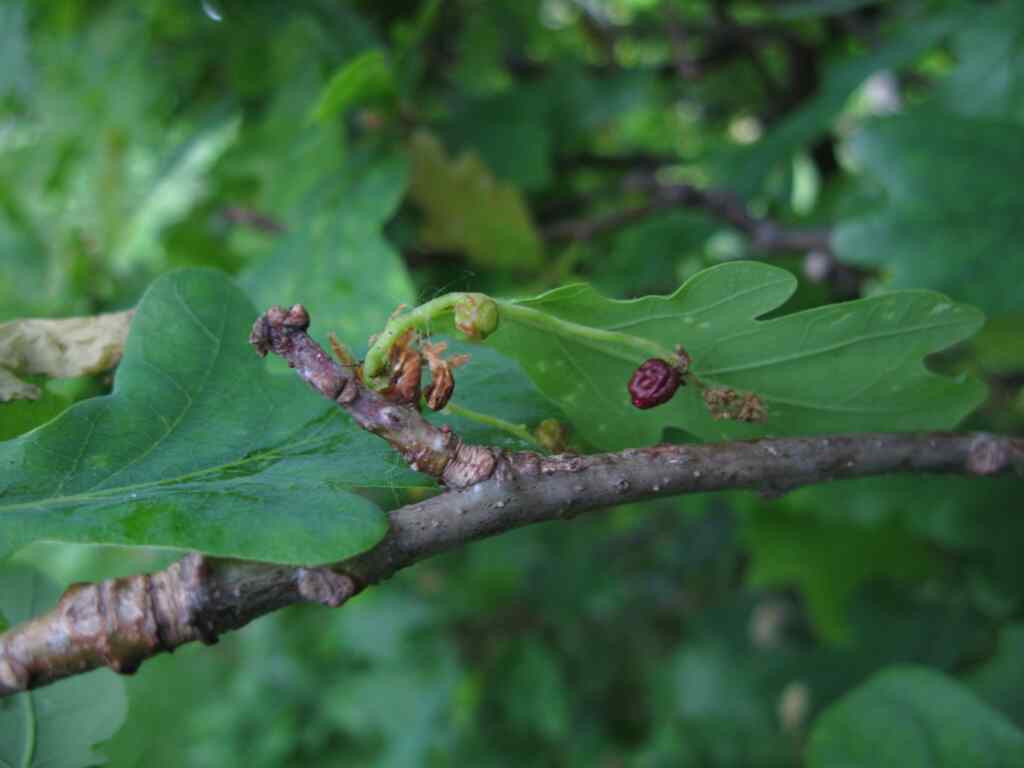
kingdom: Animalia
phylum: Arthropoda
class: Insecta
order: Hymenoptera
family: Cynipidae
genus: Andricus
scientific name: Andricus quadrilineatus
